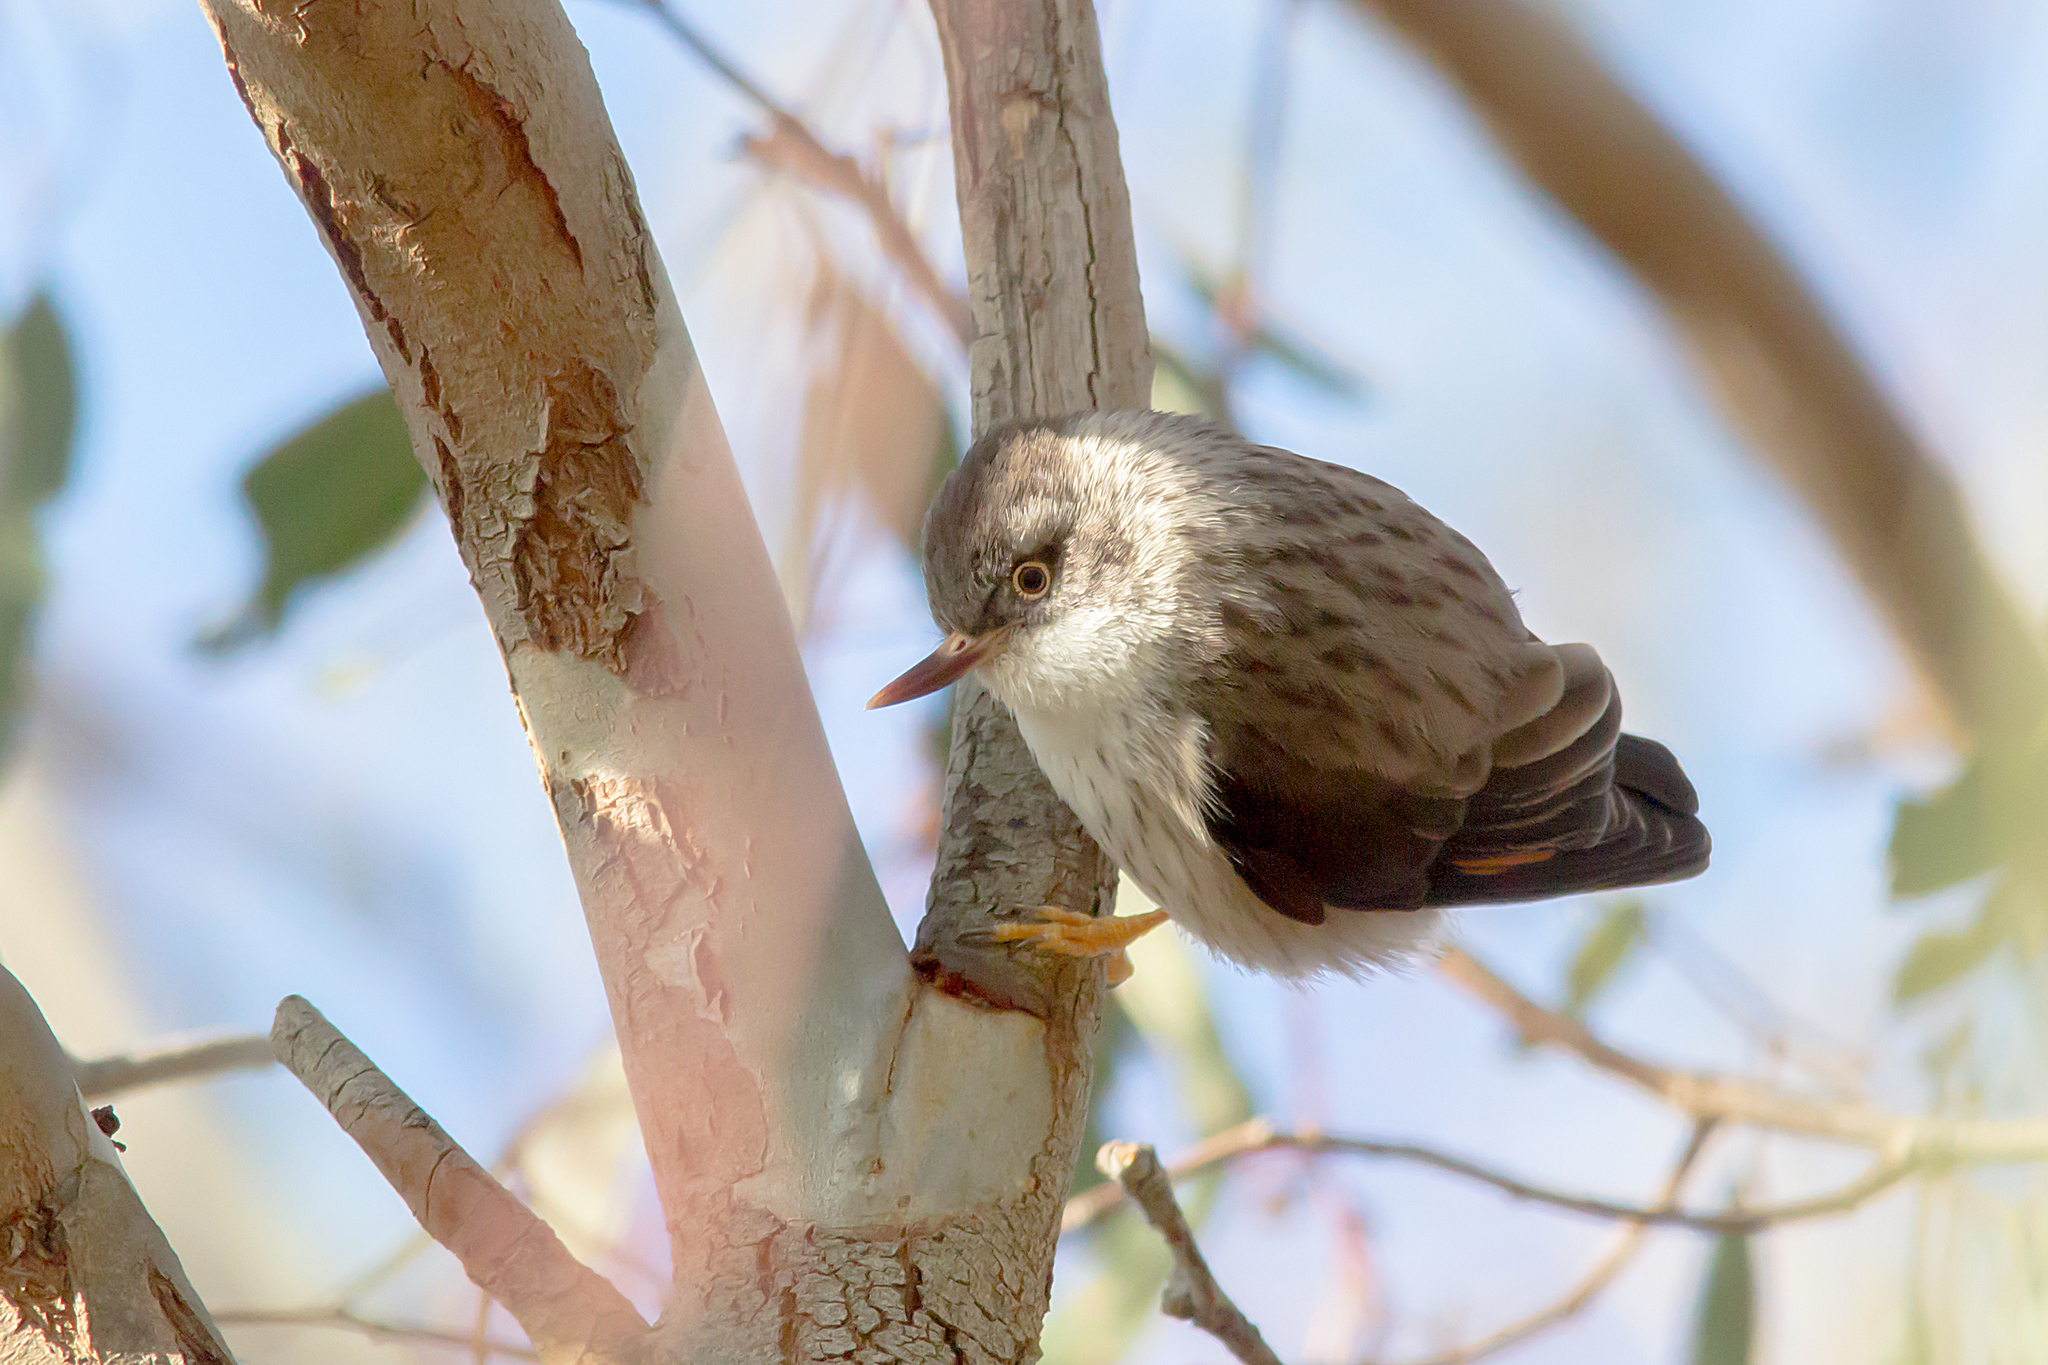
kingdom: Animalia
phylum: Chordata
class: Aves
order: Passeriformes
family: Neosittidae
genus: Daphoenositta
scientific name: Daphoenositta chrysoptera
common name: Varied sittella
